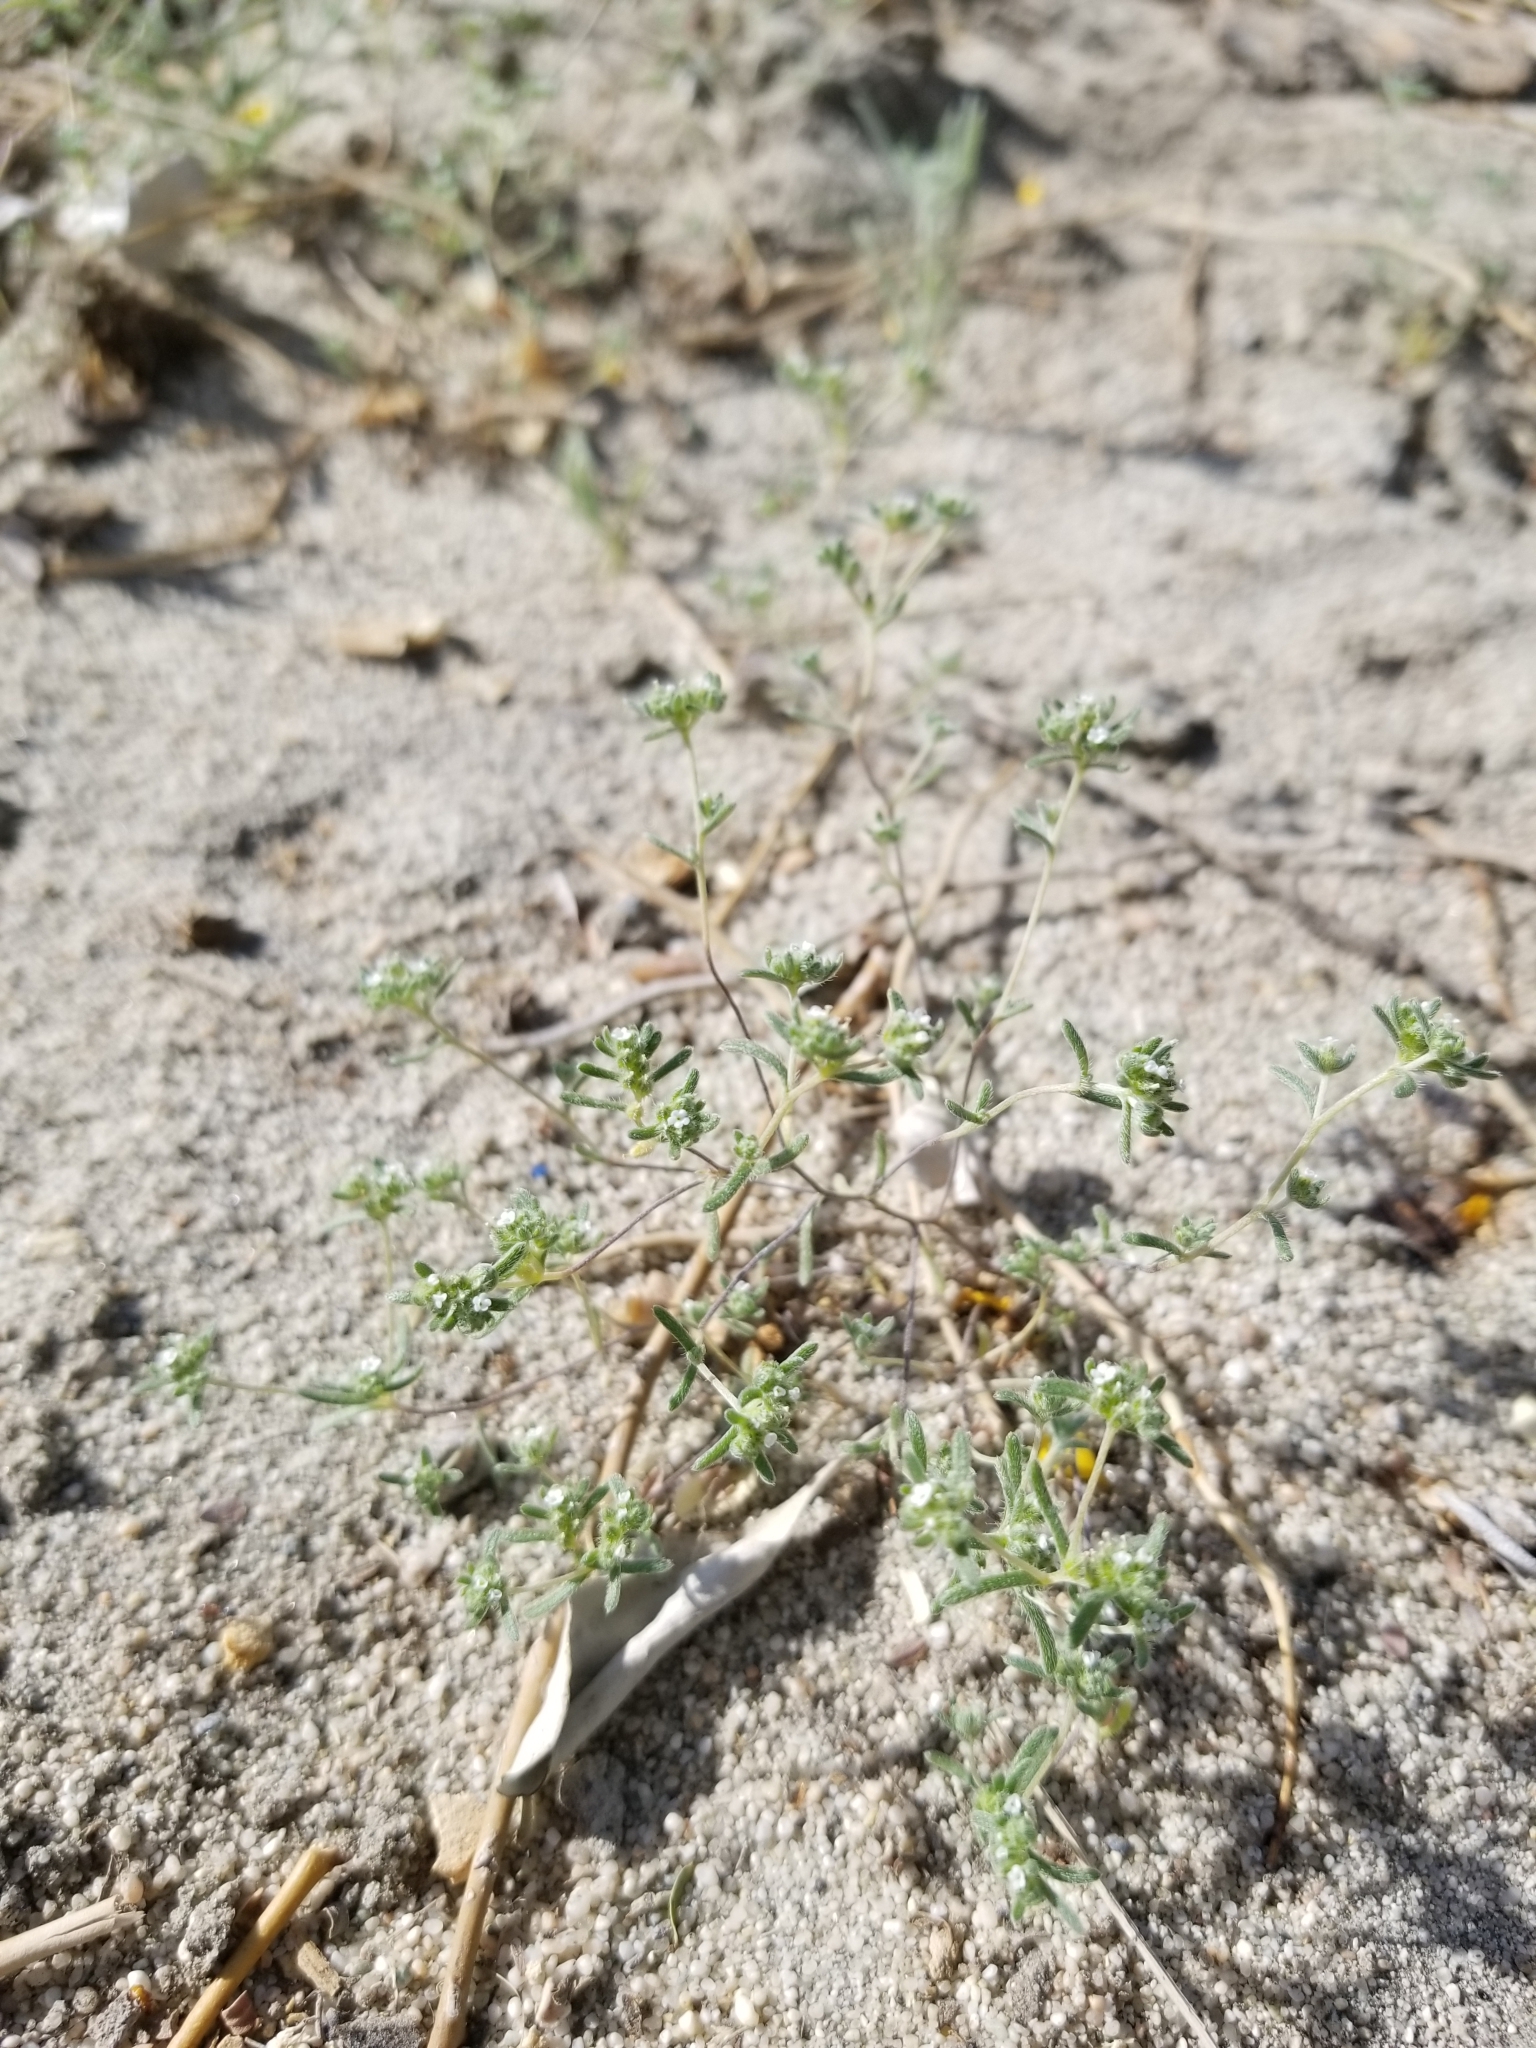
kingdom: Plantae
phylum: Tracheophyta
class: Magnoliopsida
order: Boraginales
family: Boraginaceae
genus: Eremocarya
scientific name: Eremocarya micrantha
